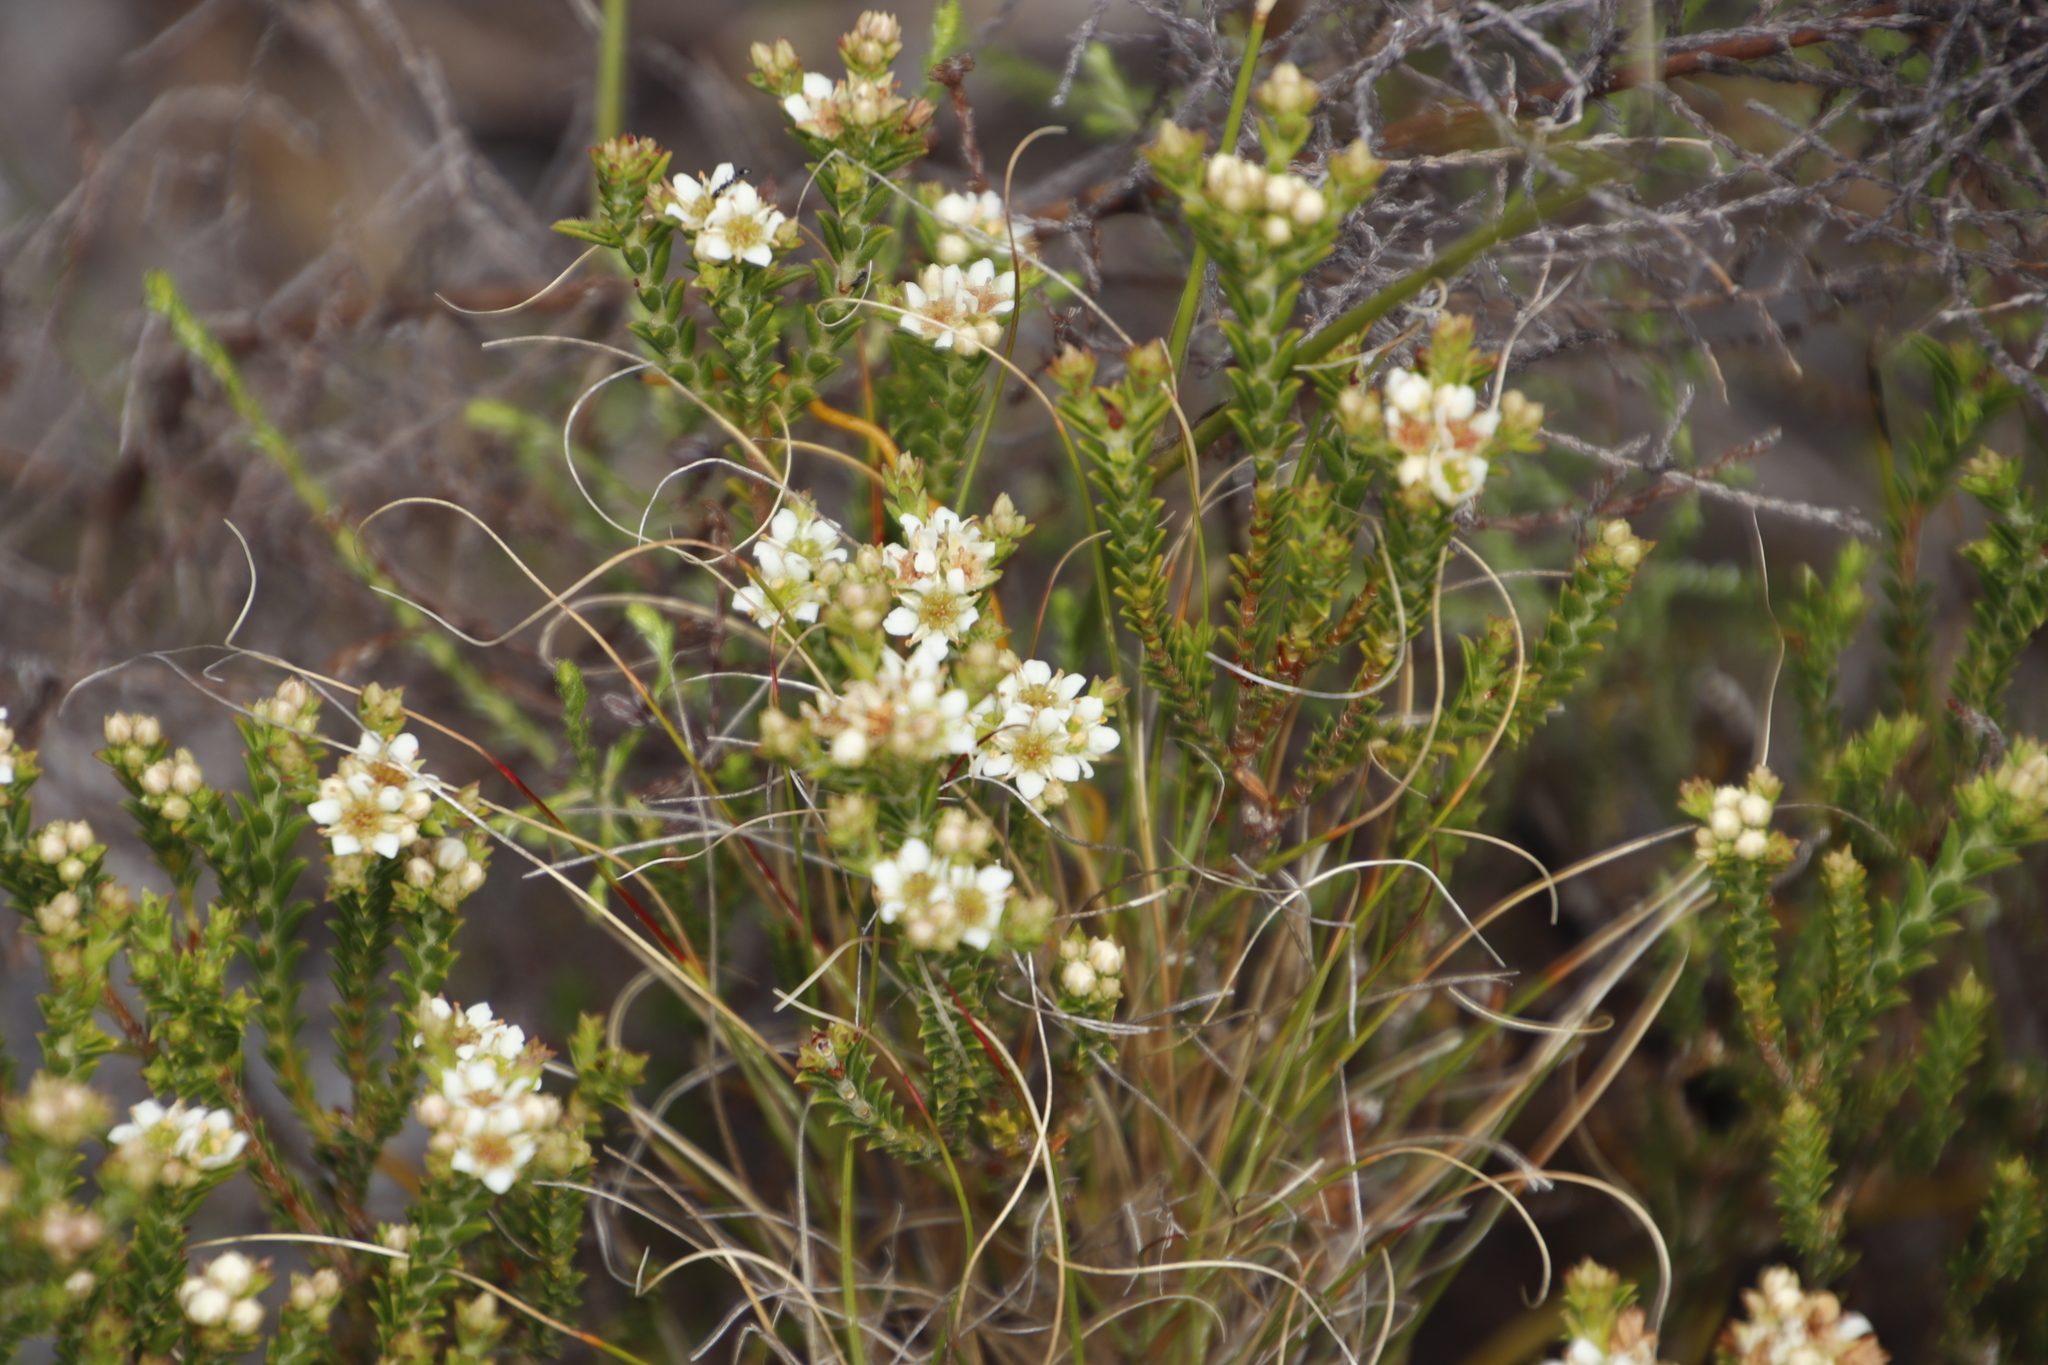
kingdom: Plantae
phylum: Tracheophyta
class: Magnoliopsida
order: Sapindales
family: Rutaceae
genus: Diosma
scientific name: Diosma oppositifolia
